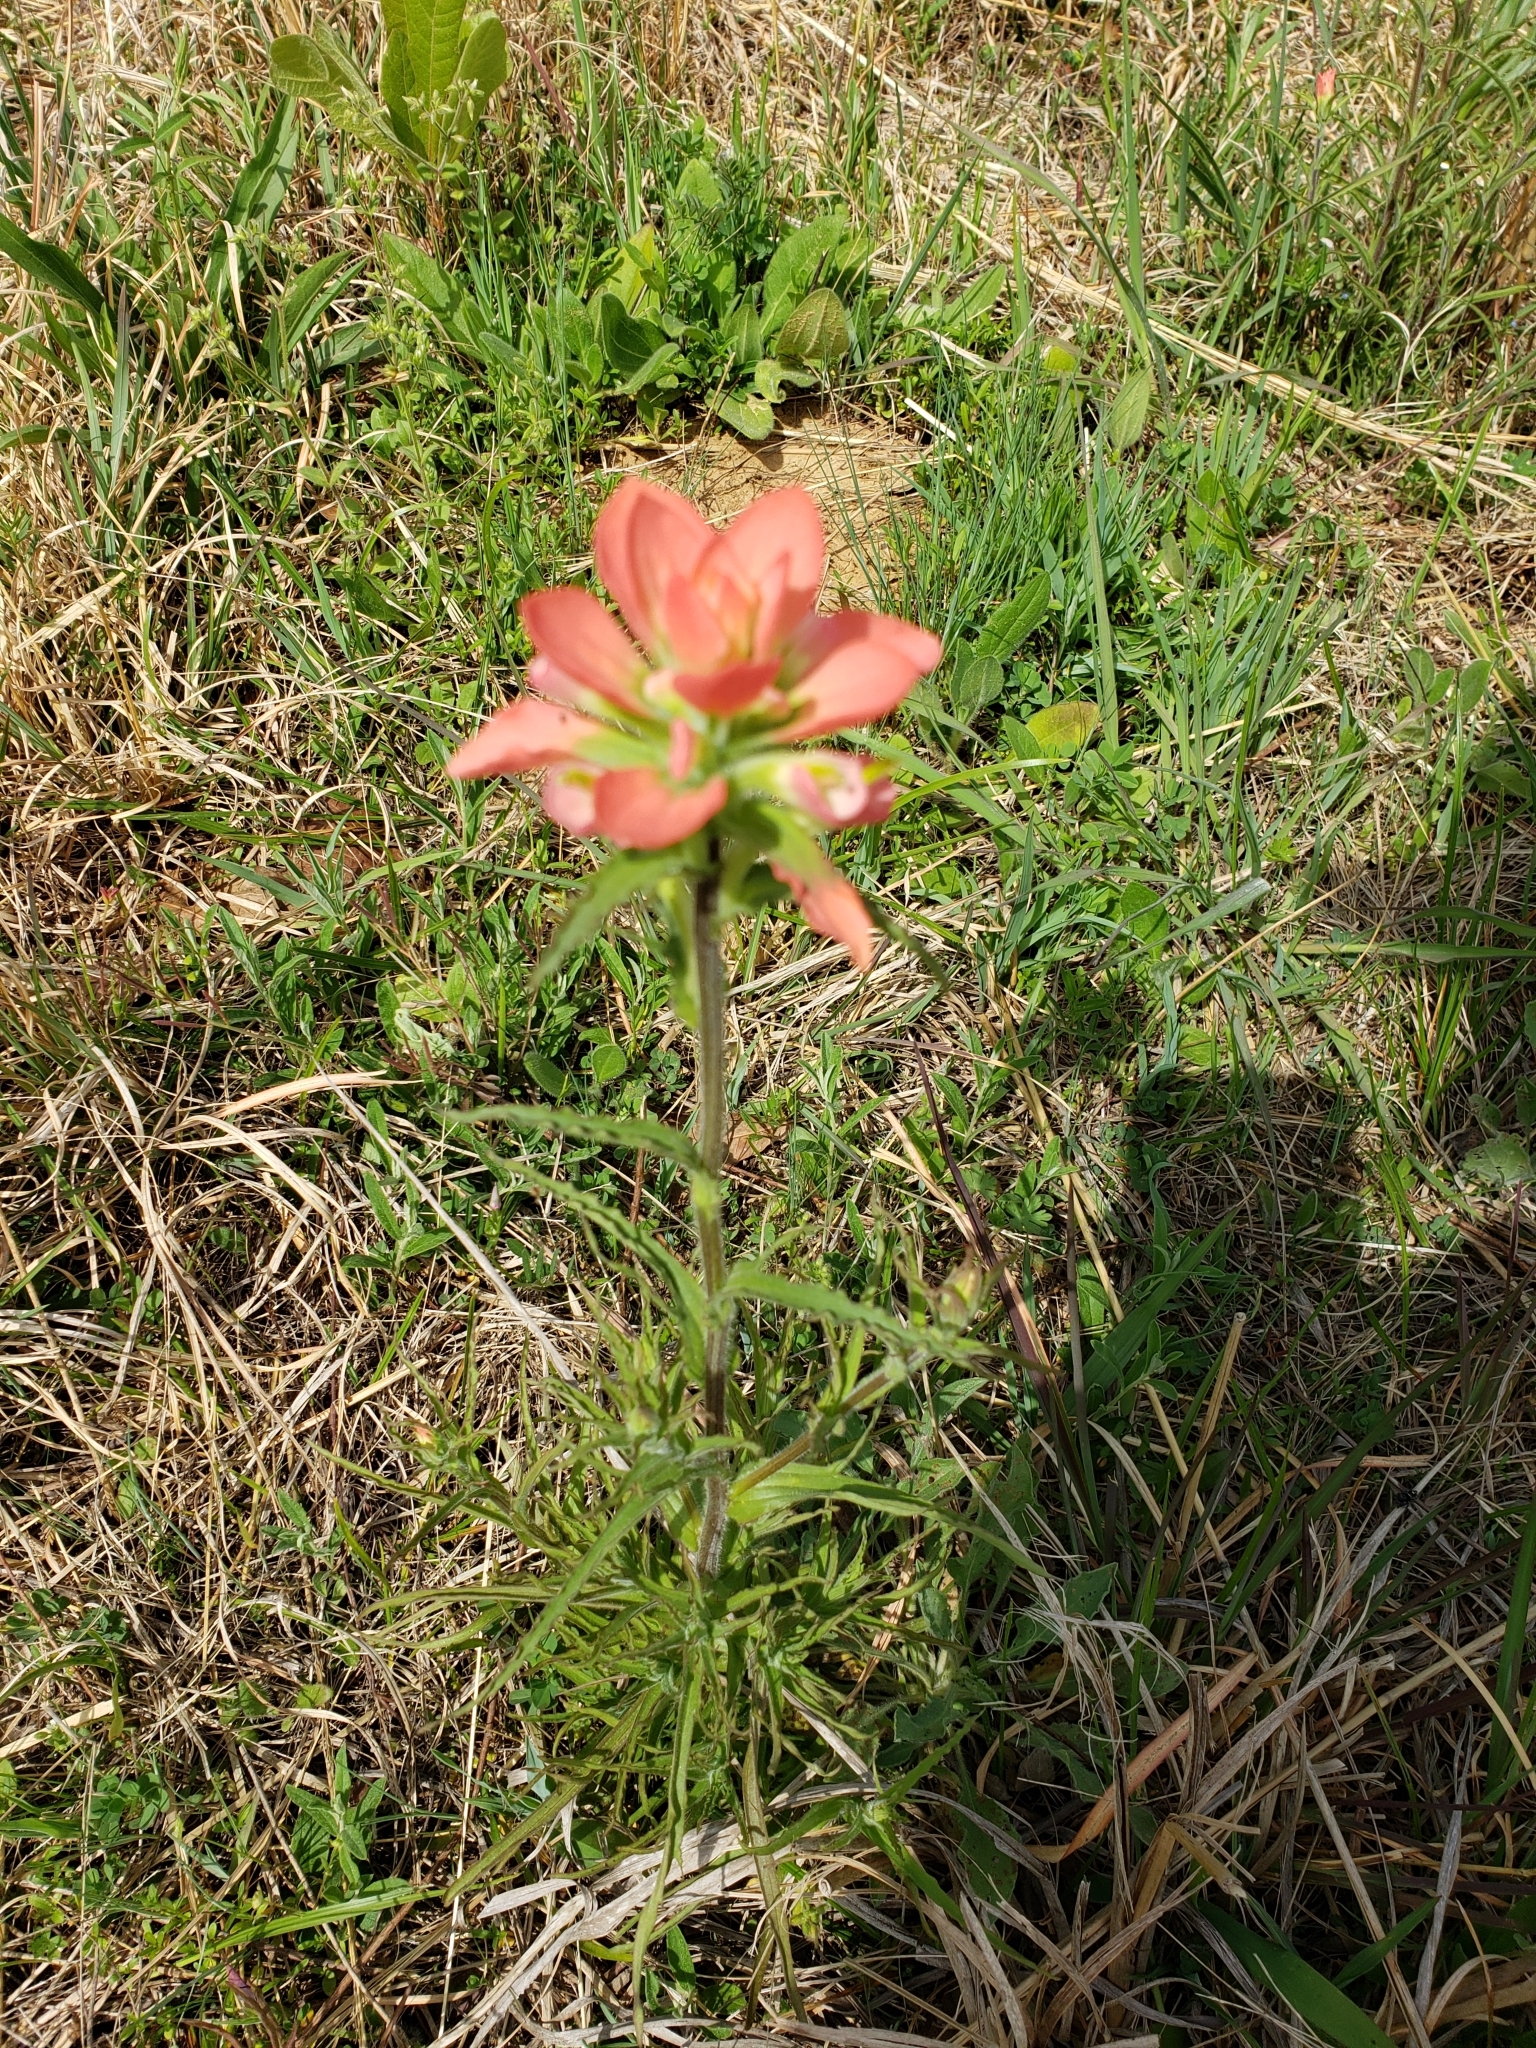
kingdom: Plantae
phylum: Tracheophyta
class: Magnoliopsida
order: Lamiales
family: Orobanchaceae
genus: Castilleja
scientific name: Castilleja indivisa
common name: Texas paintbrush
